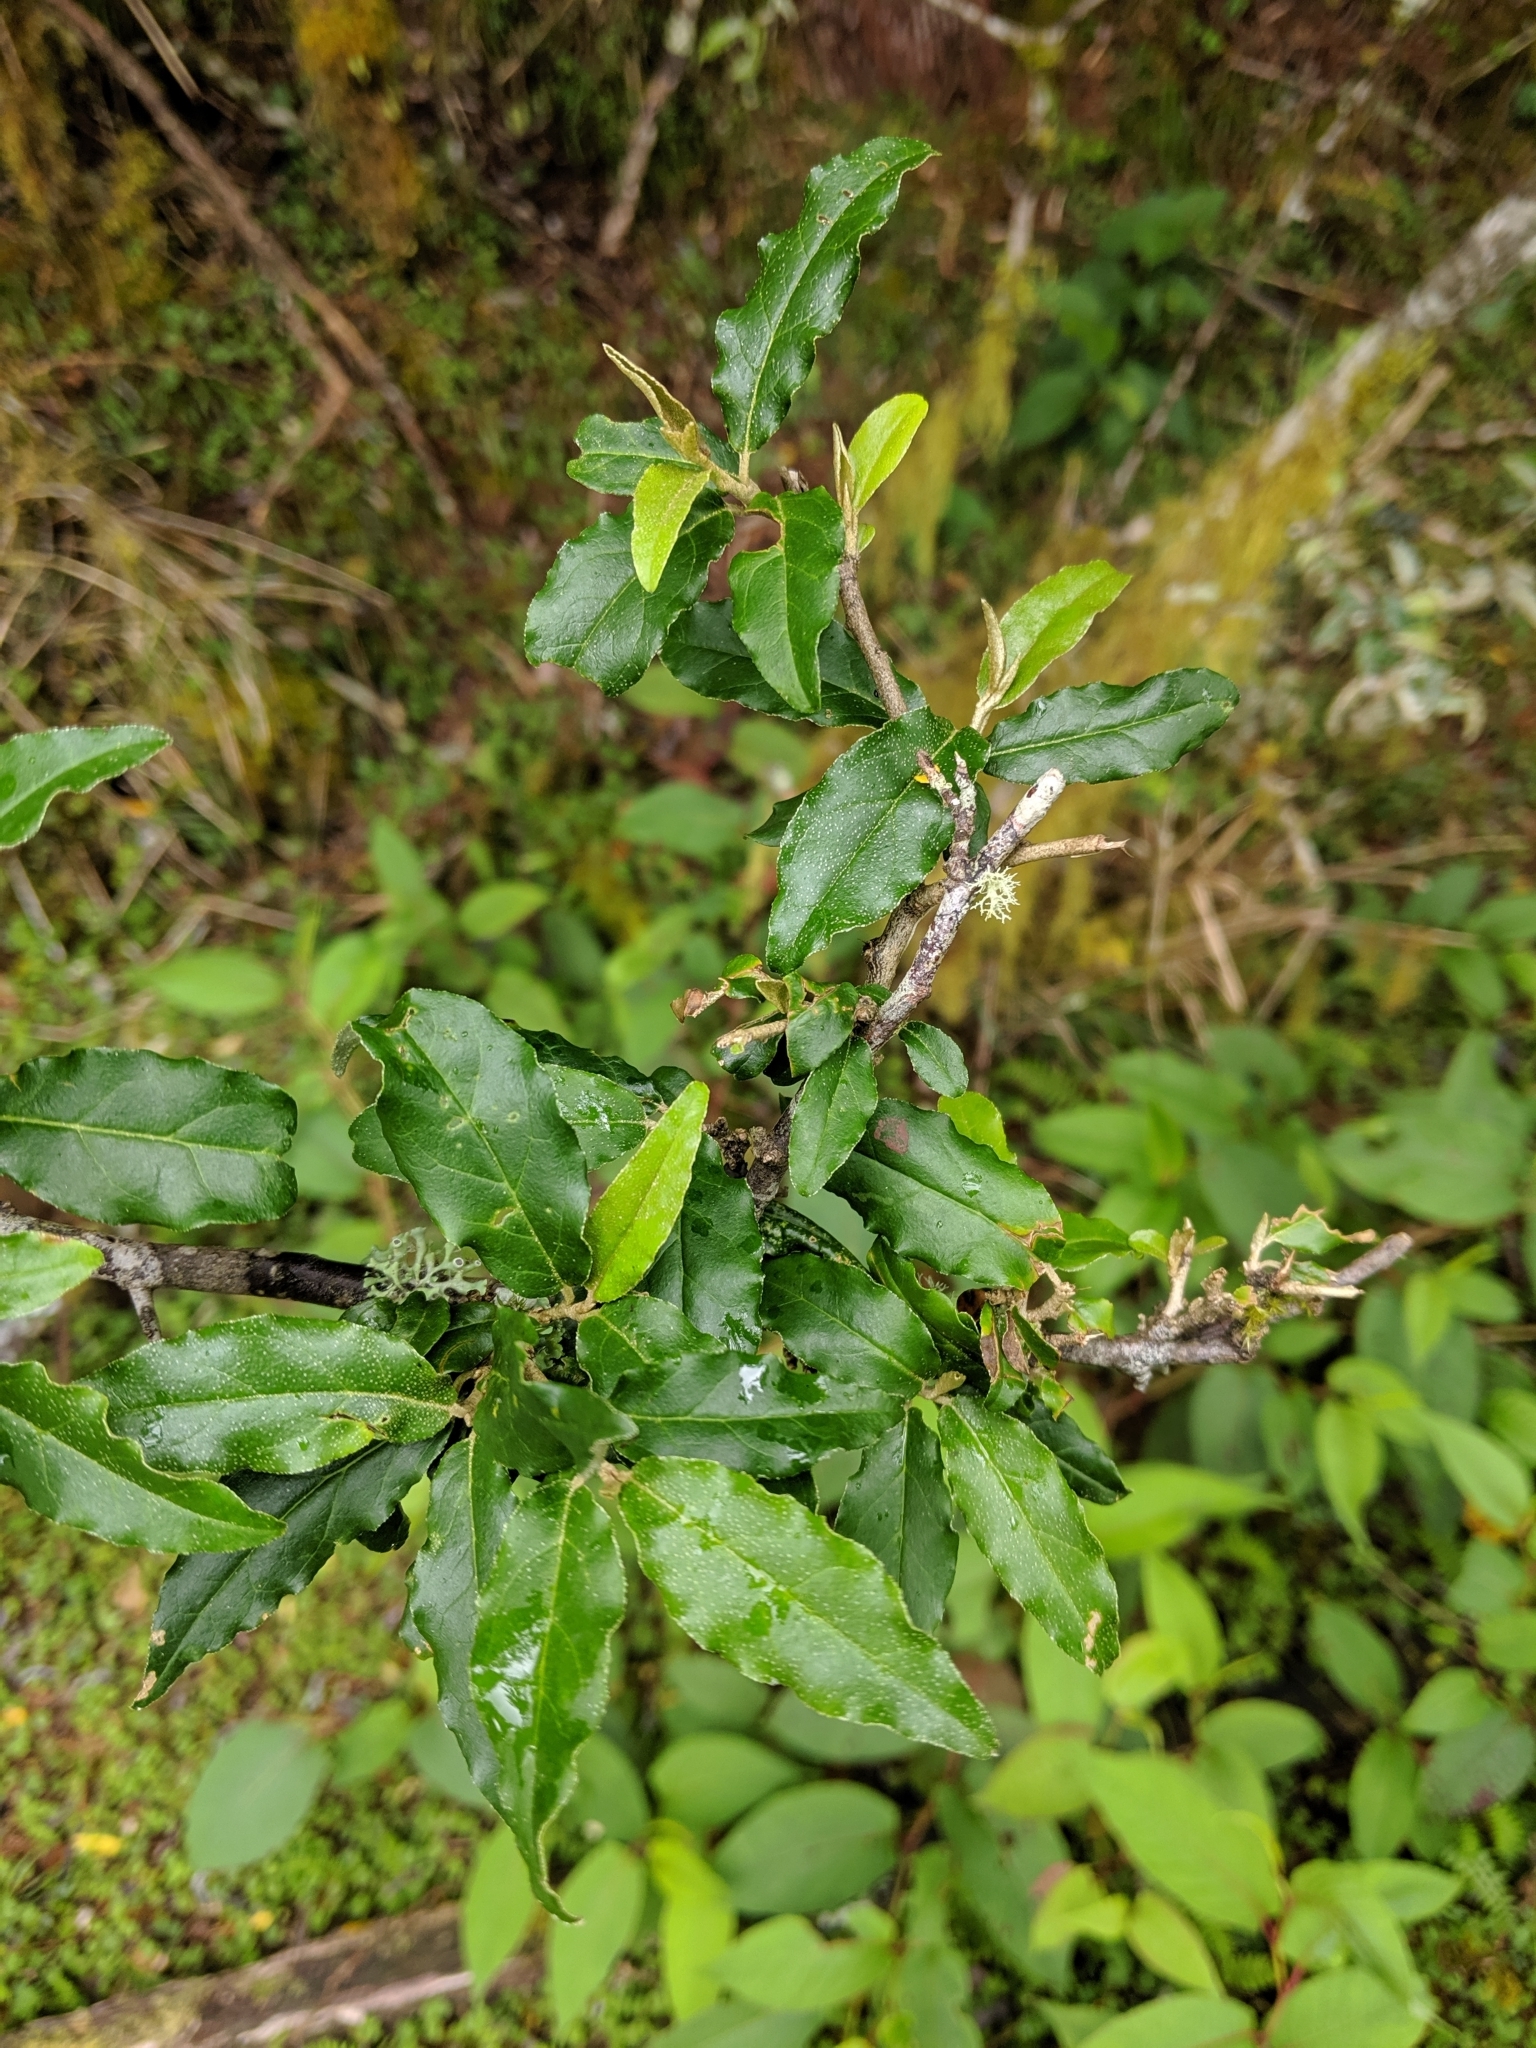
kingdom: Plantae
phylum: Tracheophyta
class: Magnoliopsida
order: Rosales
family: Elaeagnaceae
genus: Elaeagnus
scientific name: Elaeagnus umbellata
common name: Autumn olive
